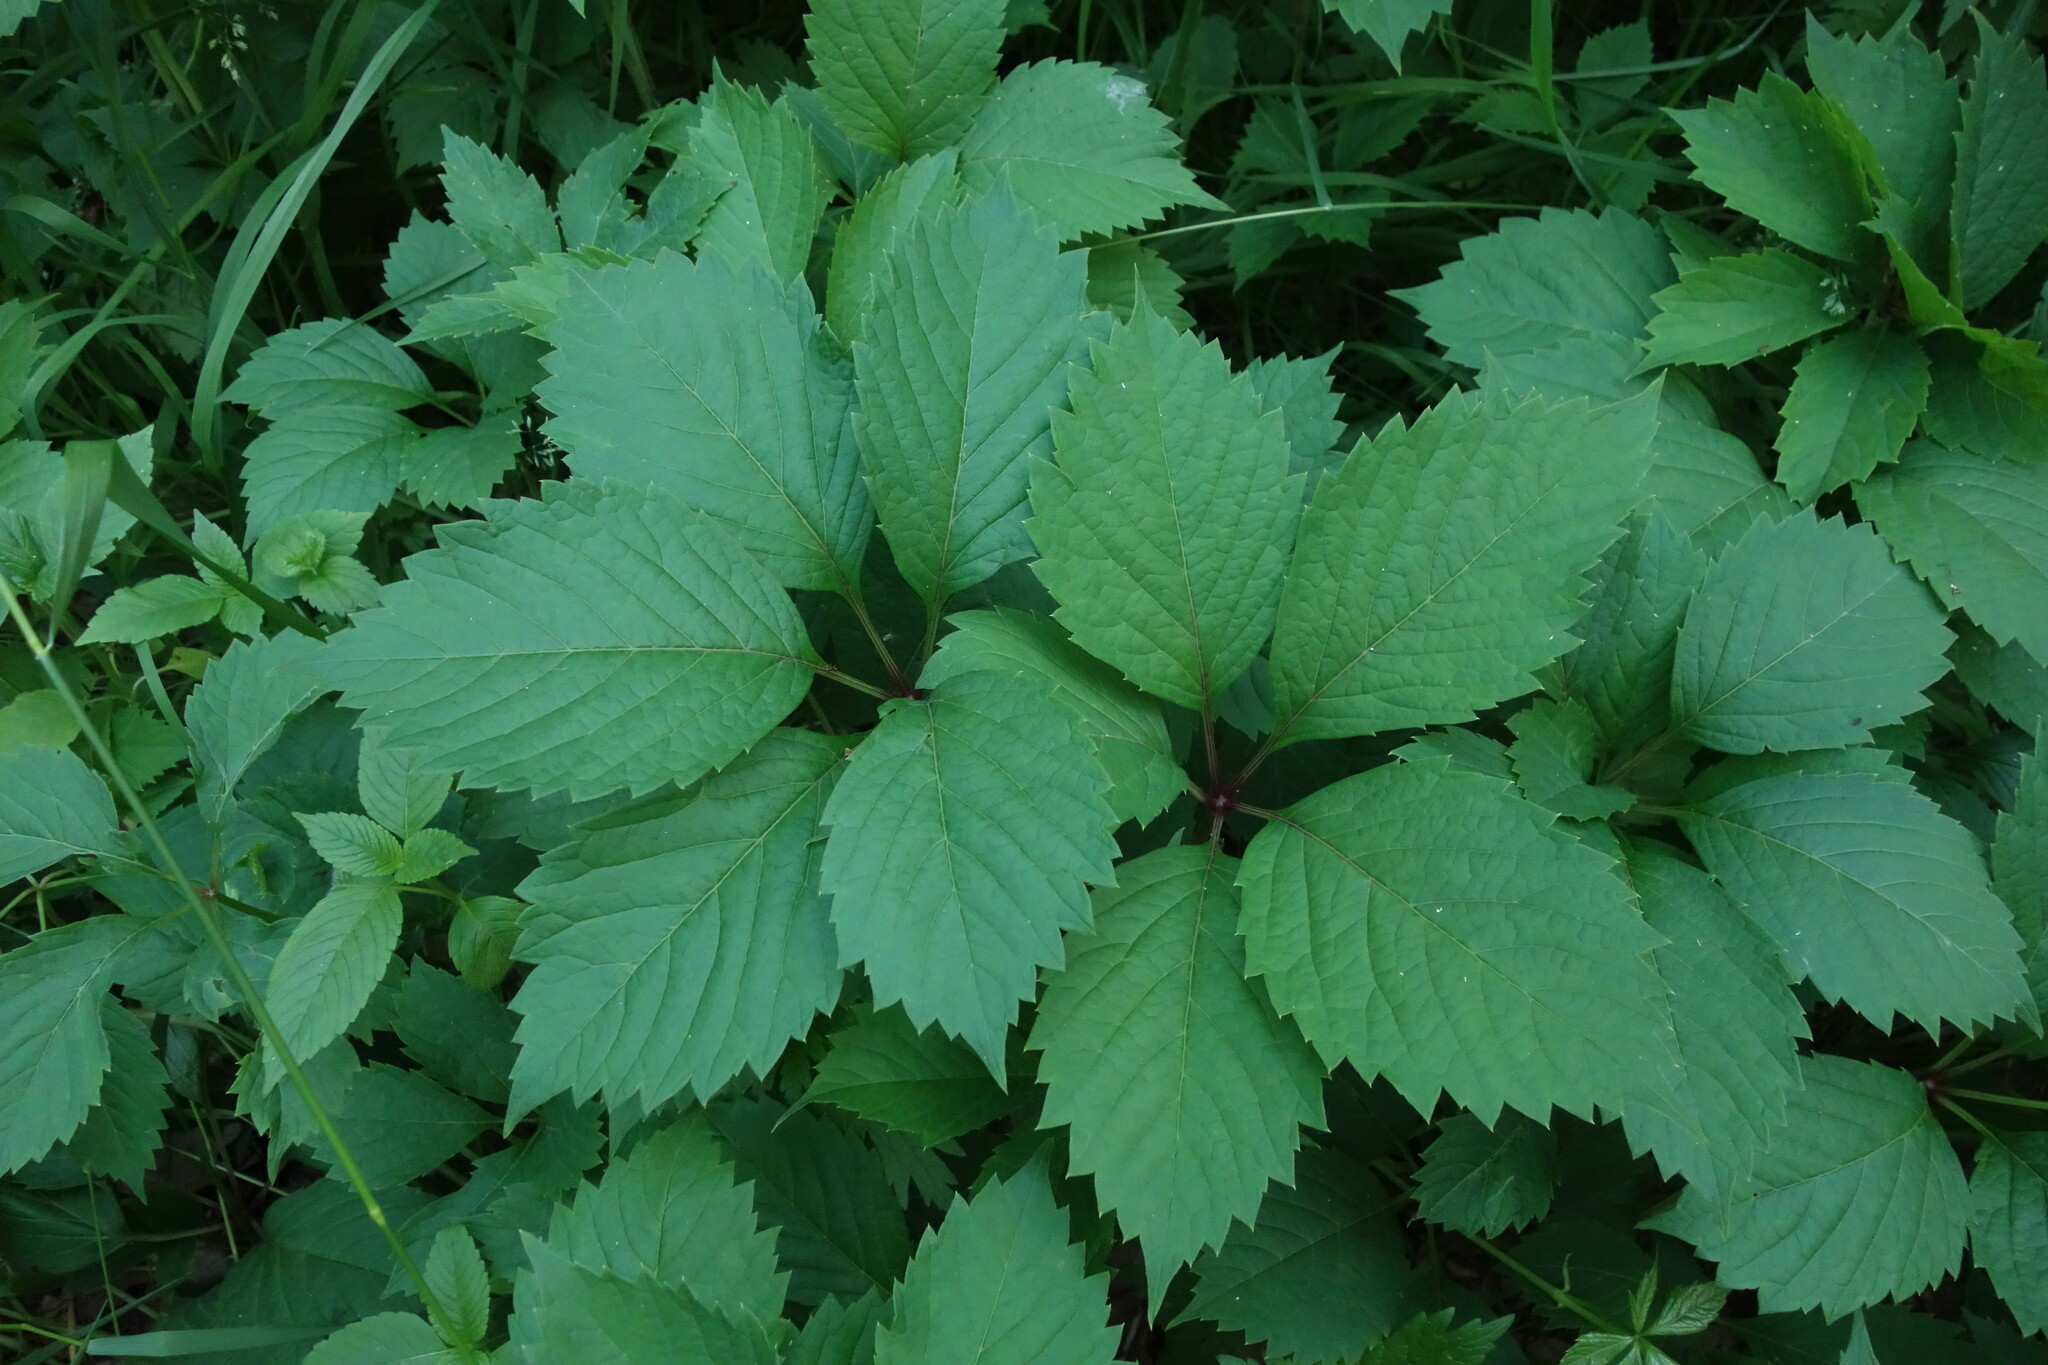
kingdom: Plantae
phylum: Tracheophyta
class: Magnoliopsida
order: Vitales
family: Vitaceae
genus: Parthenocissus
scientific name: Parthenocissus inserta
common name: False virginia-creeper
